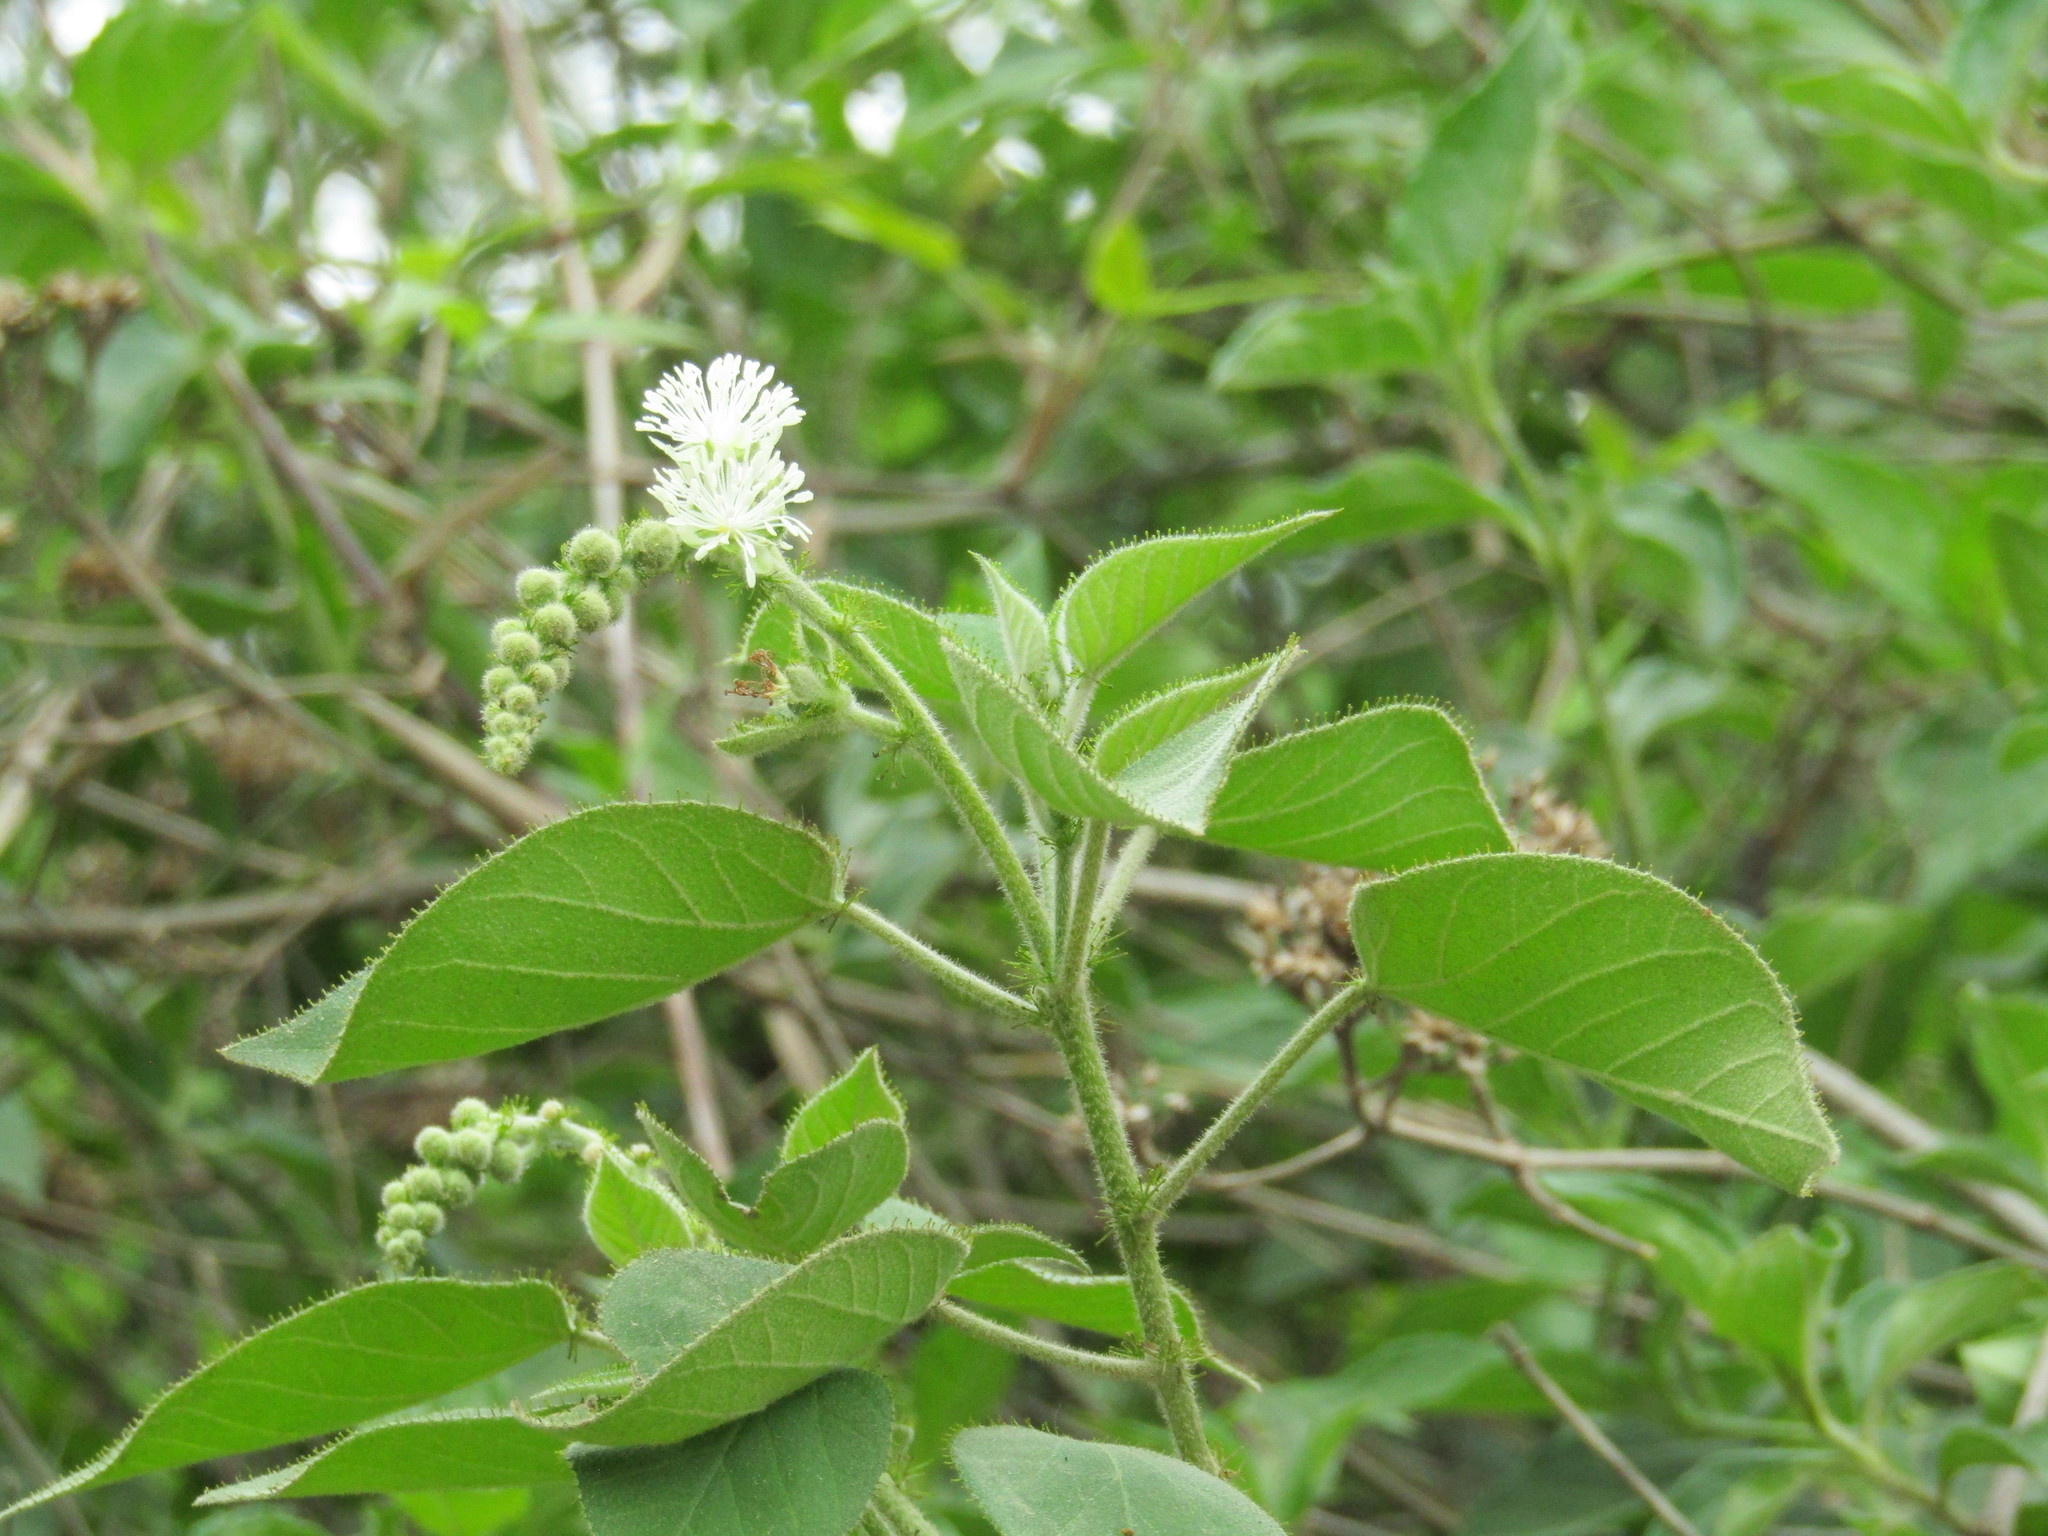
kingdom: Plantae
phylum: Tracheophyta
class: Magnoliopsida
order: Malpighiales
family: Euphorbiaceae
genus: Croton
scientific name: Croton ciliatoglandulifer
